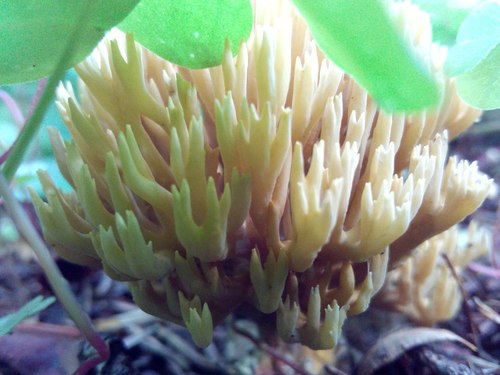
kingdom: Fungi
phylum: Basidiomycota
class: Agaricomycetes
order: Gomphales
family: Gomphaceae
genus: Ramaria
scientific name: Ramaria
